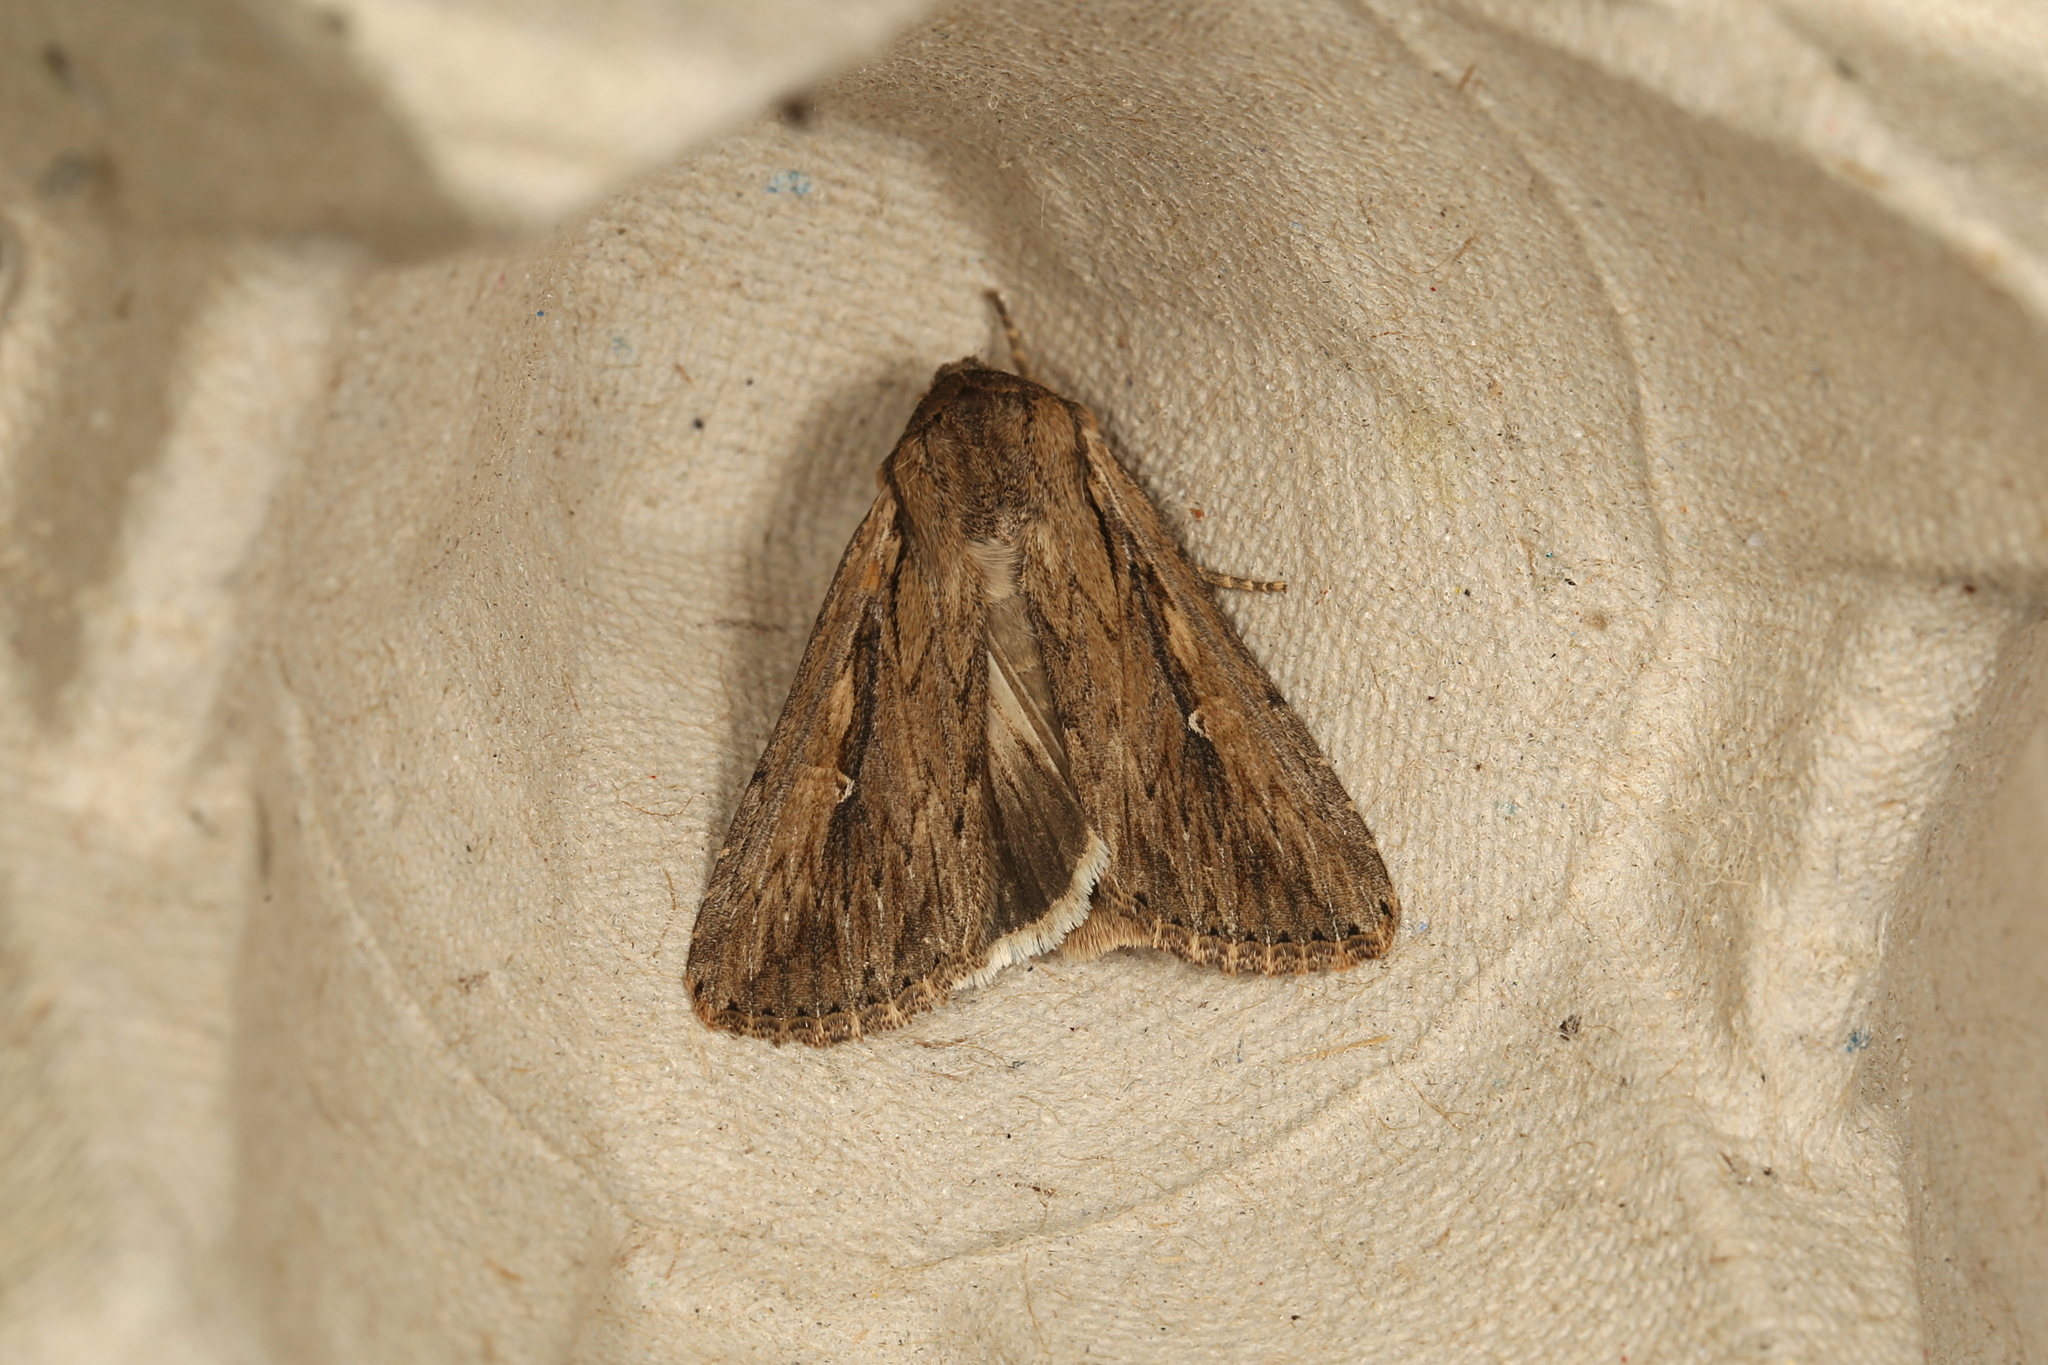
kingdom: Animalia
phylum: Arthropoda
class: Insecta
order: Lepidoptera
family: Noctuidae
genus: Persectania
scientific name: Persectania ewingii
